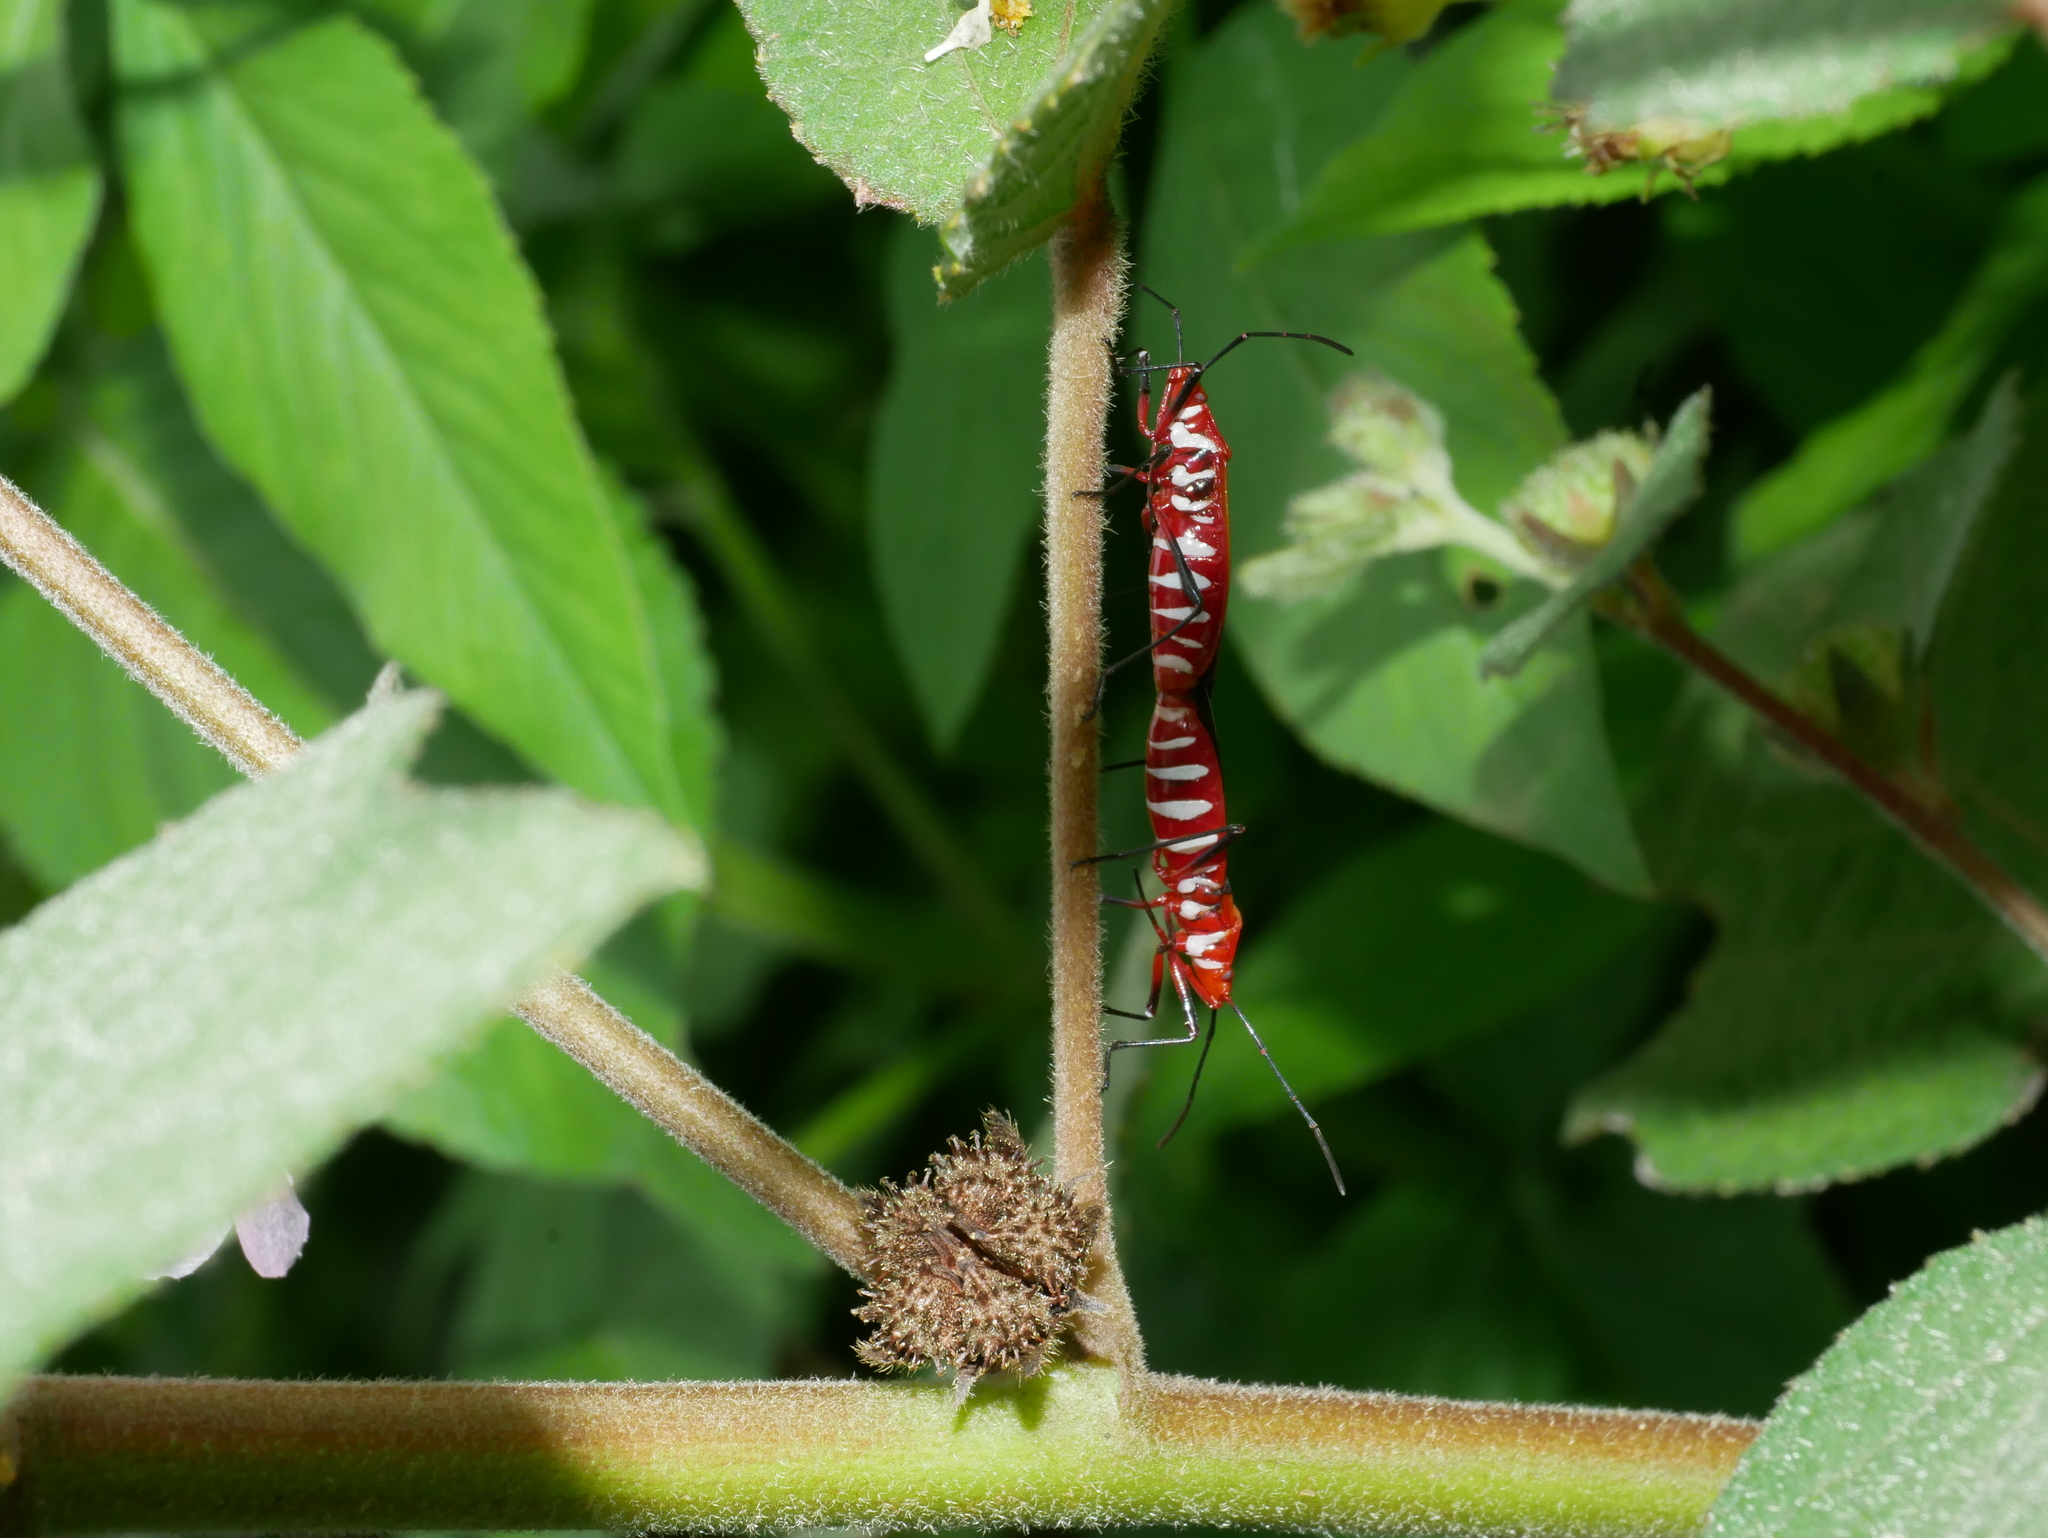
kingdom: Animalia
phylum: Arthropoda
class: Insecta
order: Hemiptera
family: Pyrrhocoridae
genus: Dysdercus
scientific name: Dysdercus cingulatus
